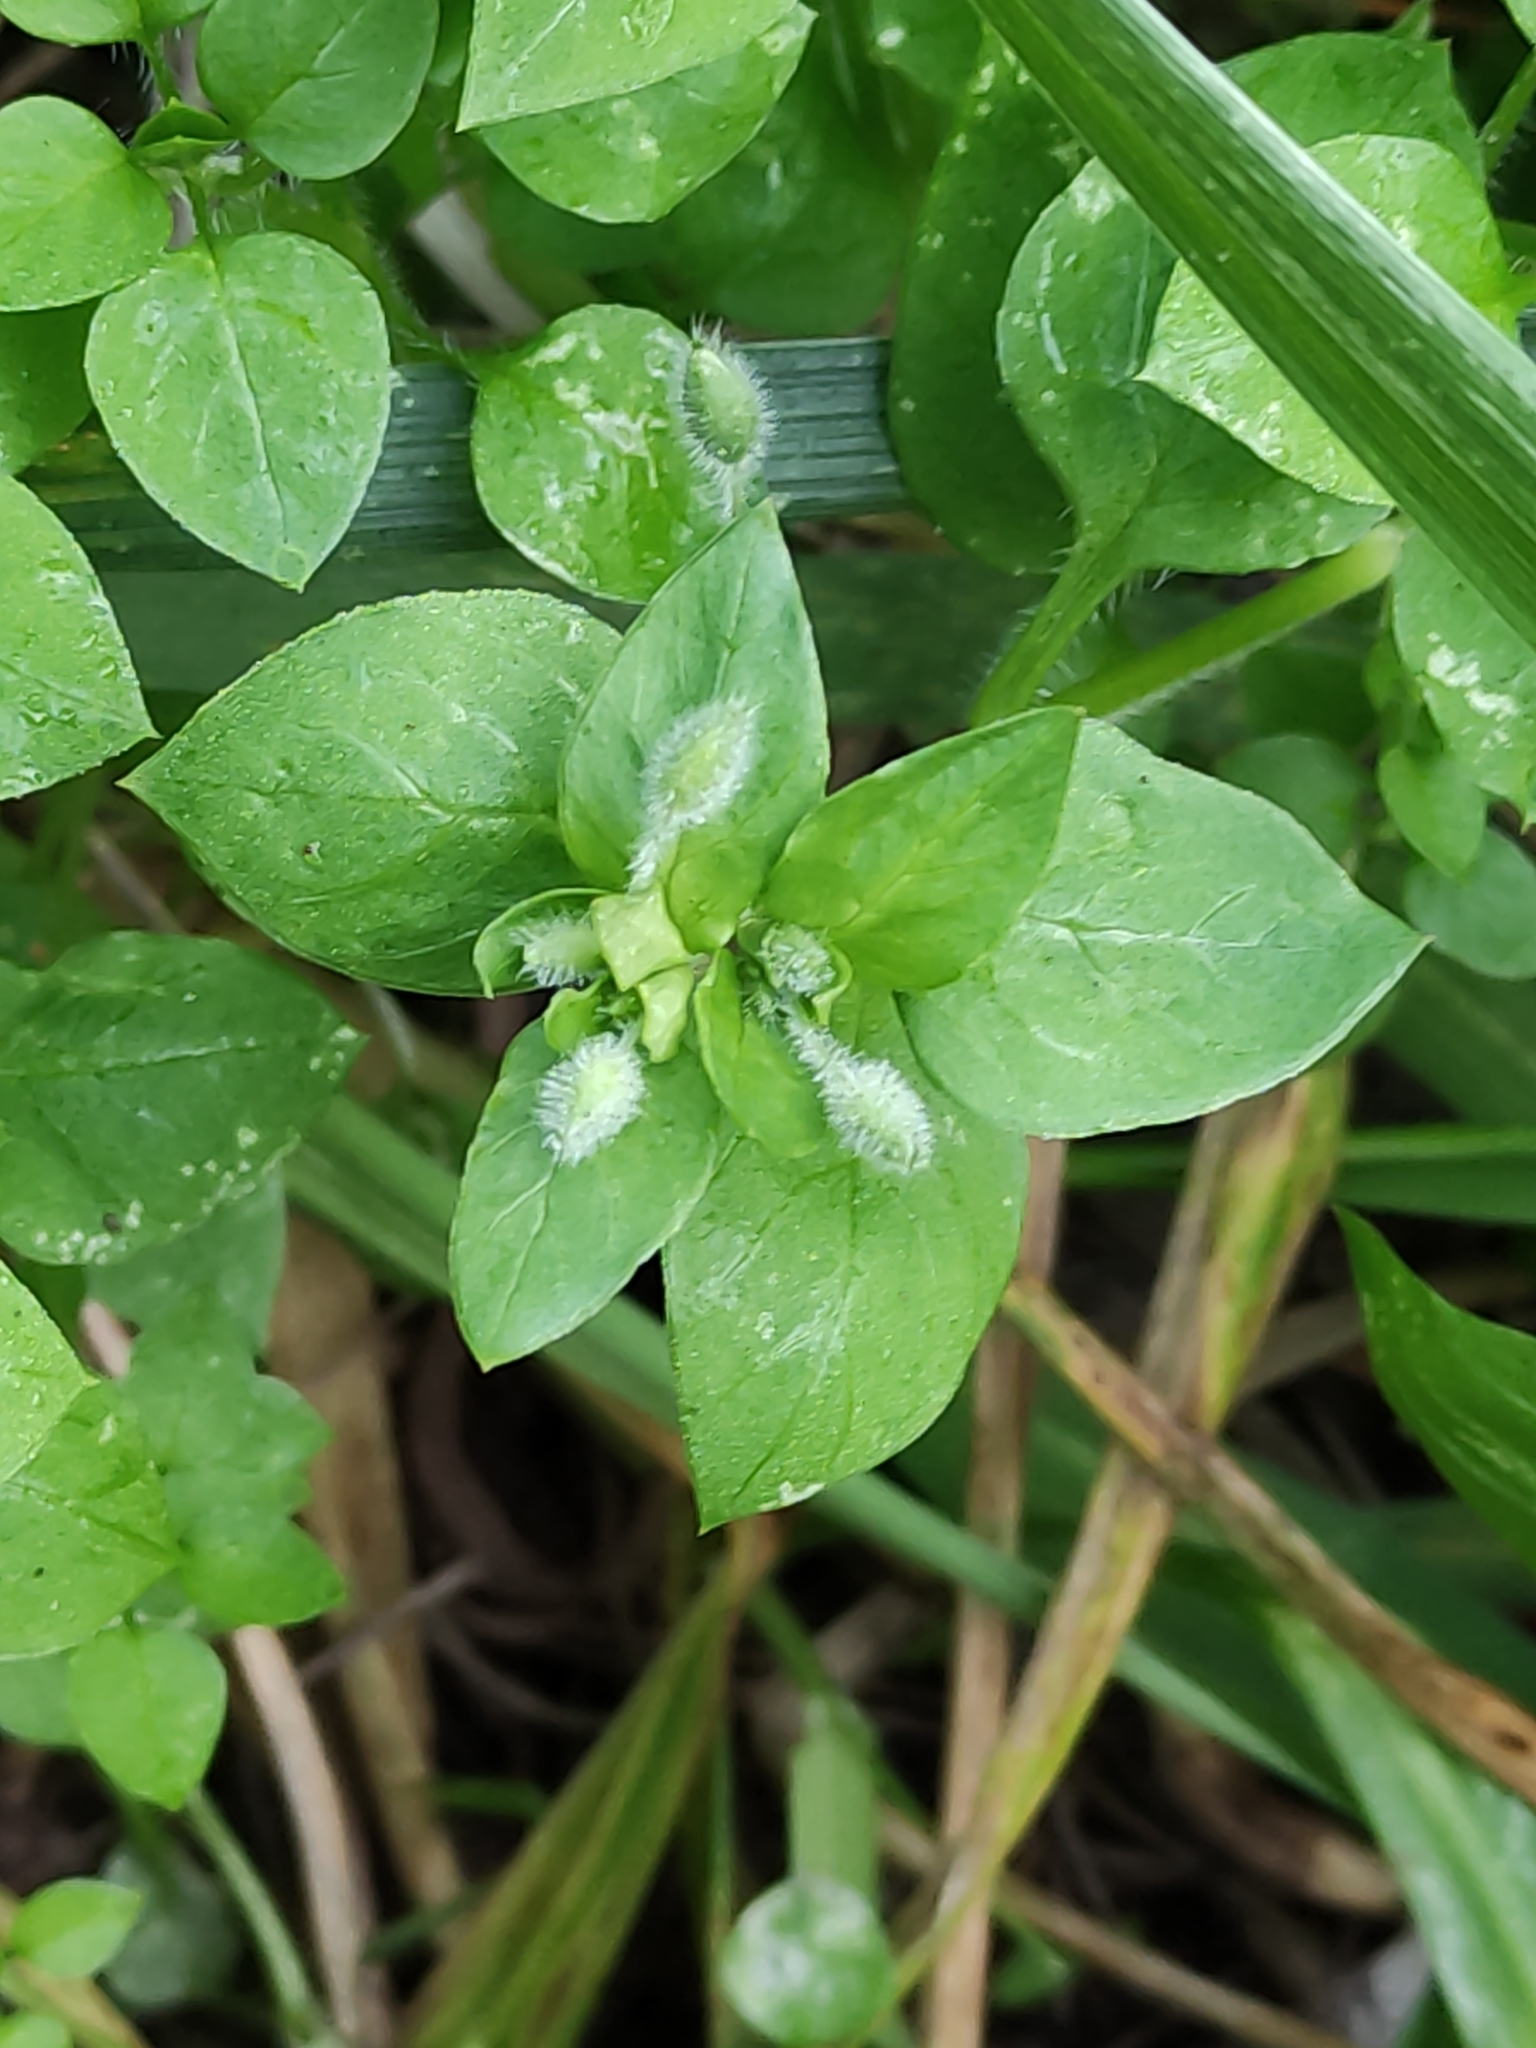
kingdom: Plantae
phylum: Tracheophyta
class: Magnoliopsida
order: Caryophyllales
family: Caryophyllaceae
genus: Stellaria
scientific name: Stellaria media
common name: Common chickweed
